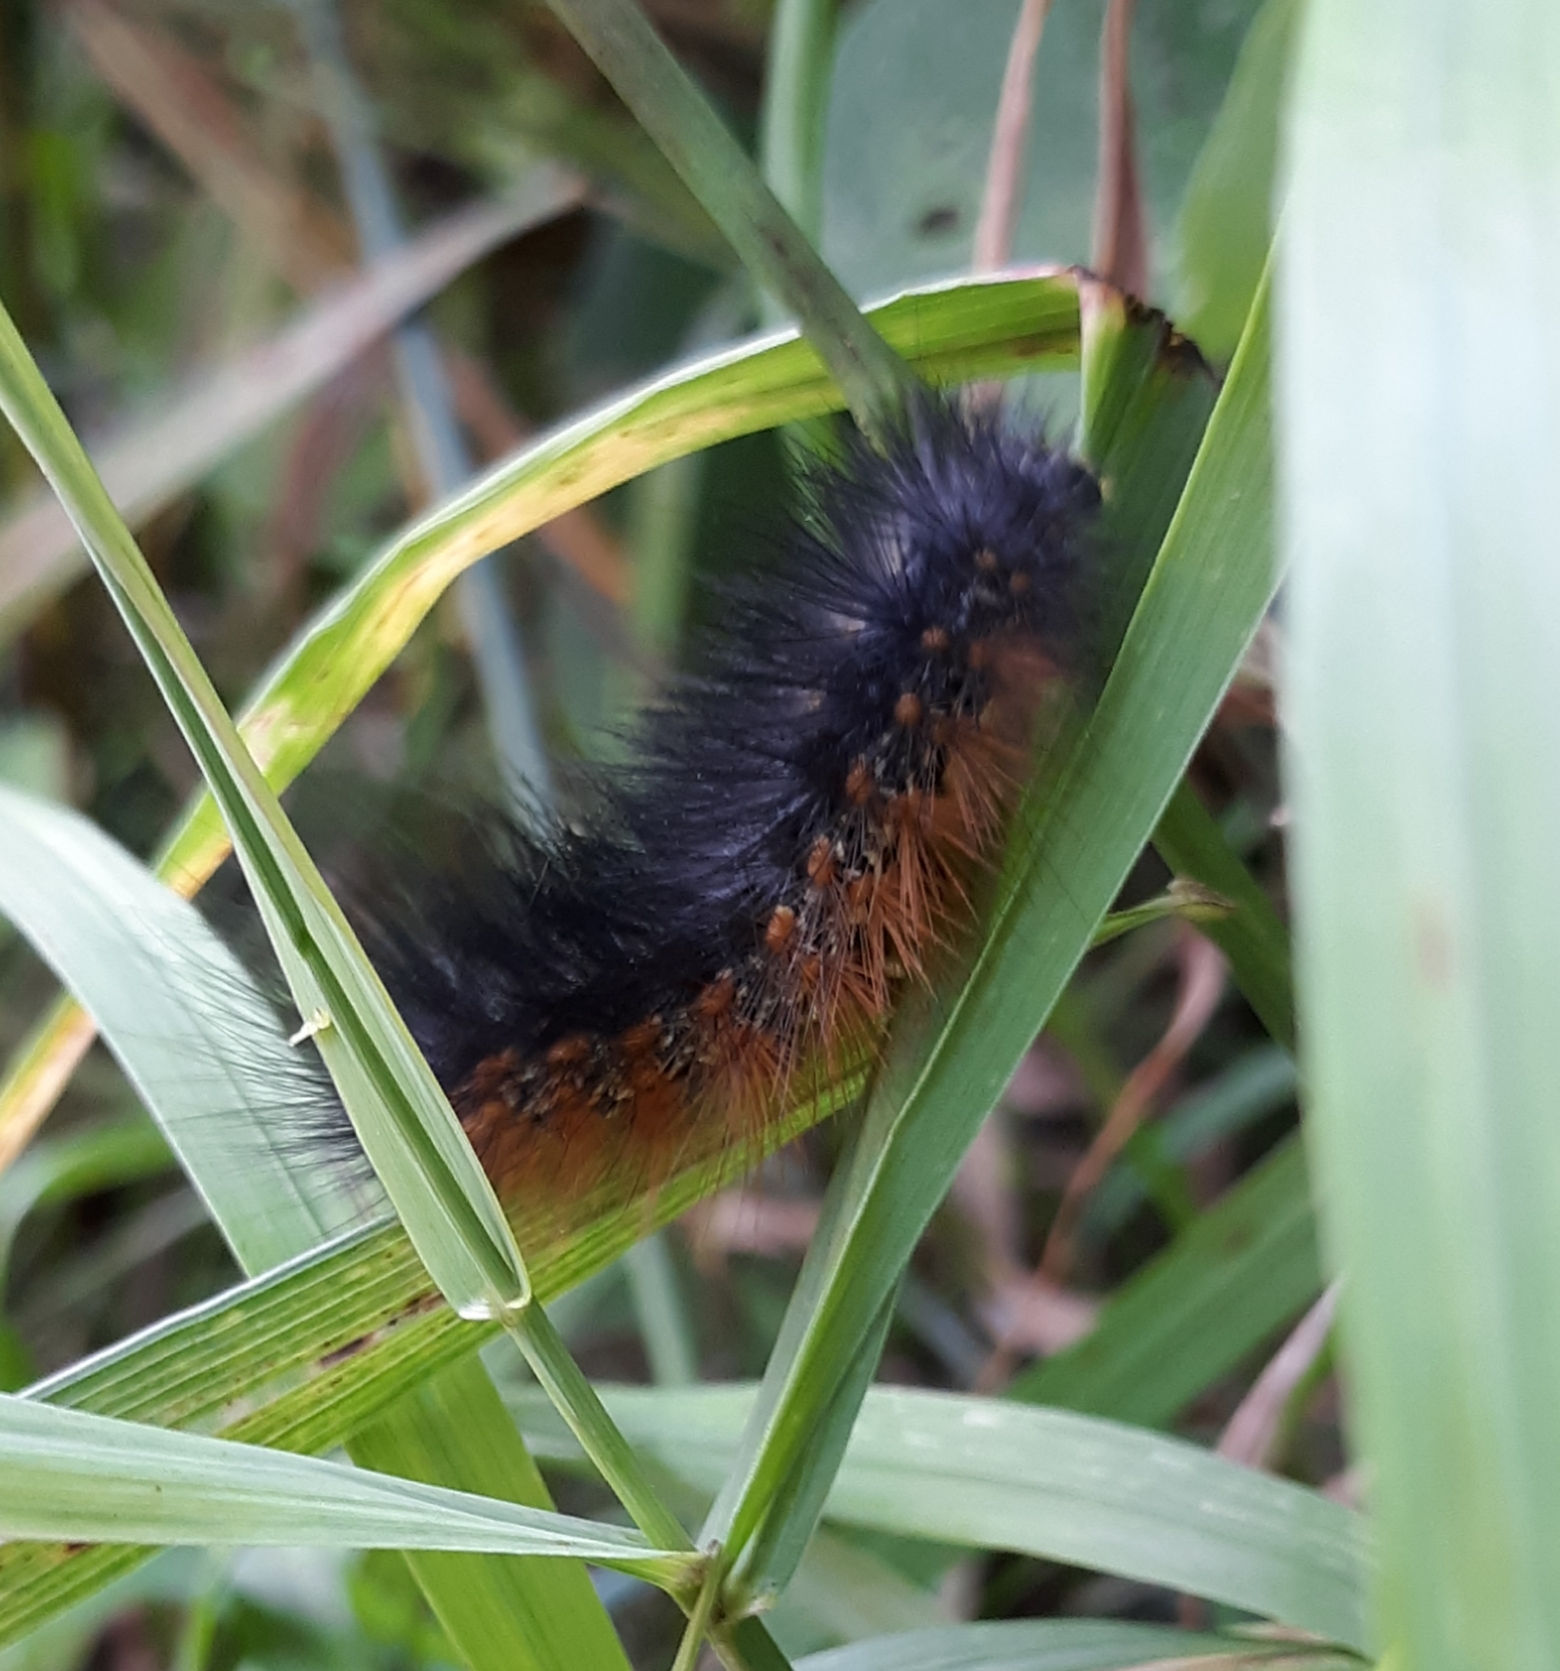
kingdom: Animalia
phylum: Arthropoda
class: Insecta
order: Lepidoptera
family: Erebidae
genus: Estigmene
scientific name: Estigmene acrea
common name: Salt marsh moth
